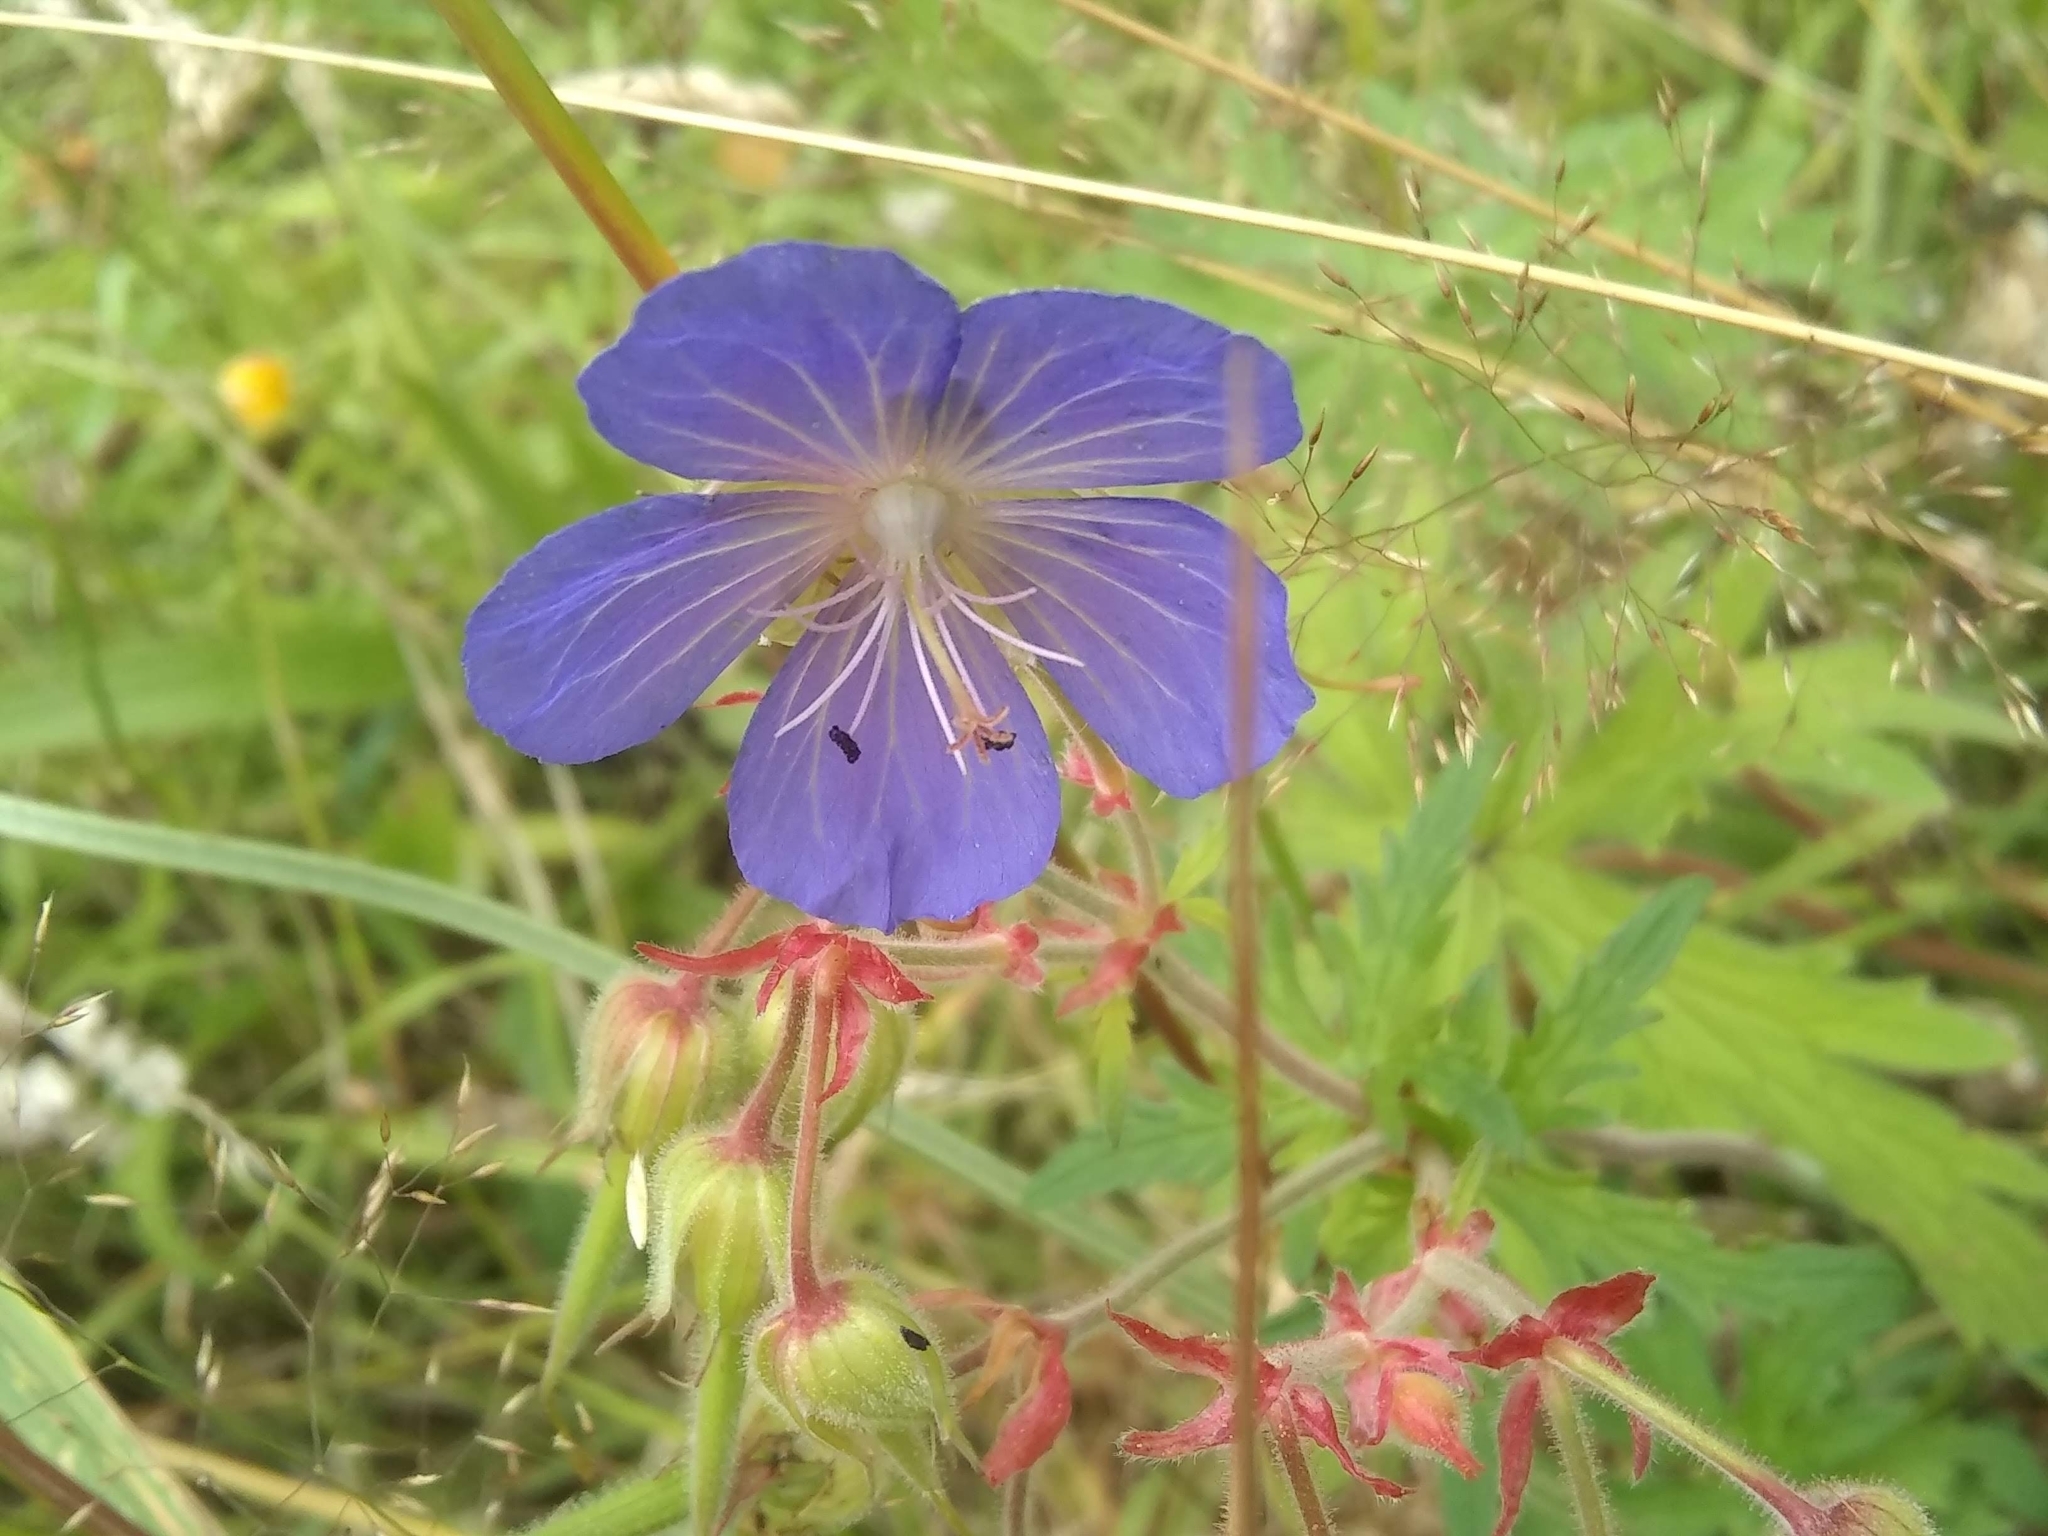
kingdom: Plantae
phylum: Tracheophyta
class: Magnoliopsida
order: Geraniales
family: Geraniaceae
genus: Geranium
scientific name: Geranium pratense
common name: Meadow crane's-bill
